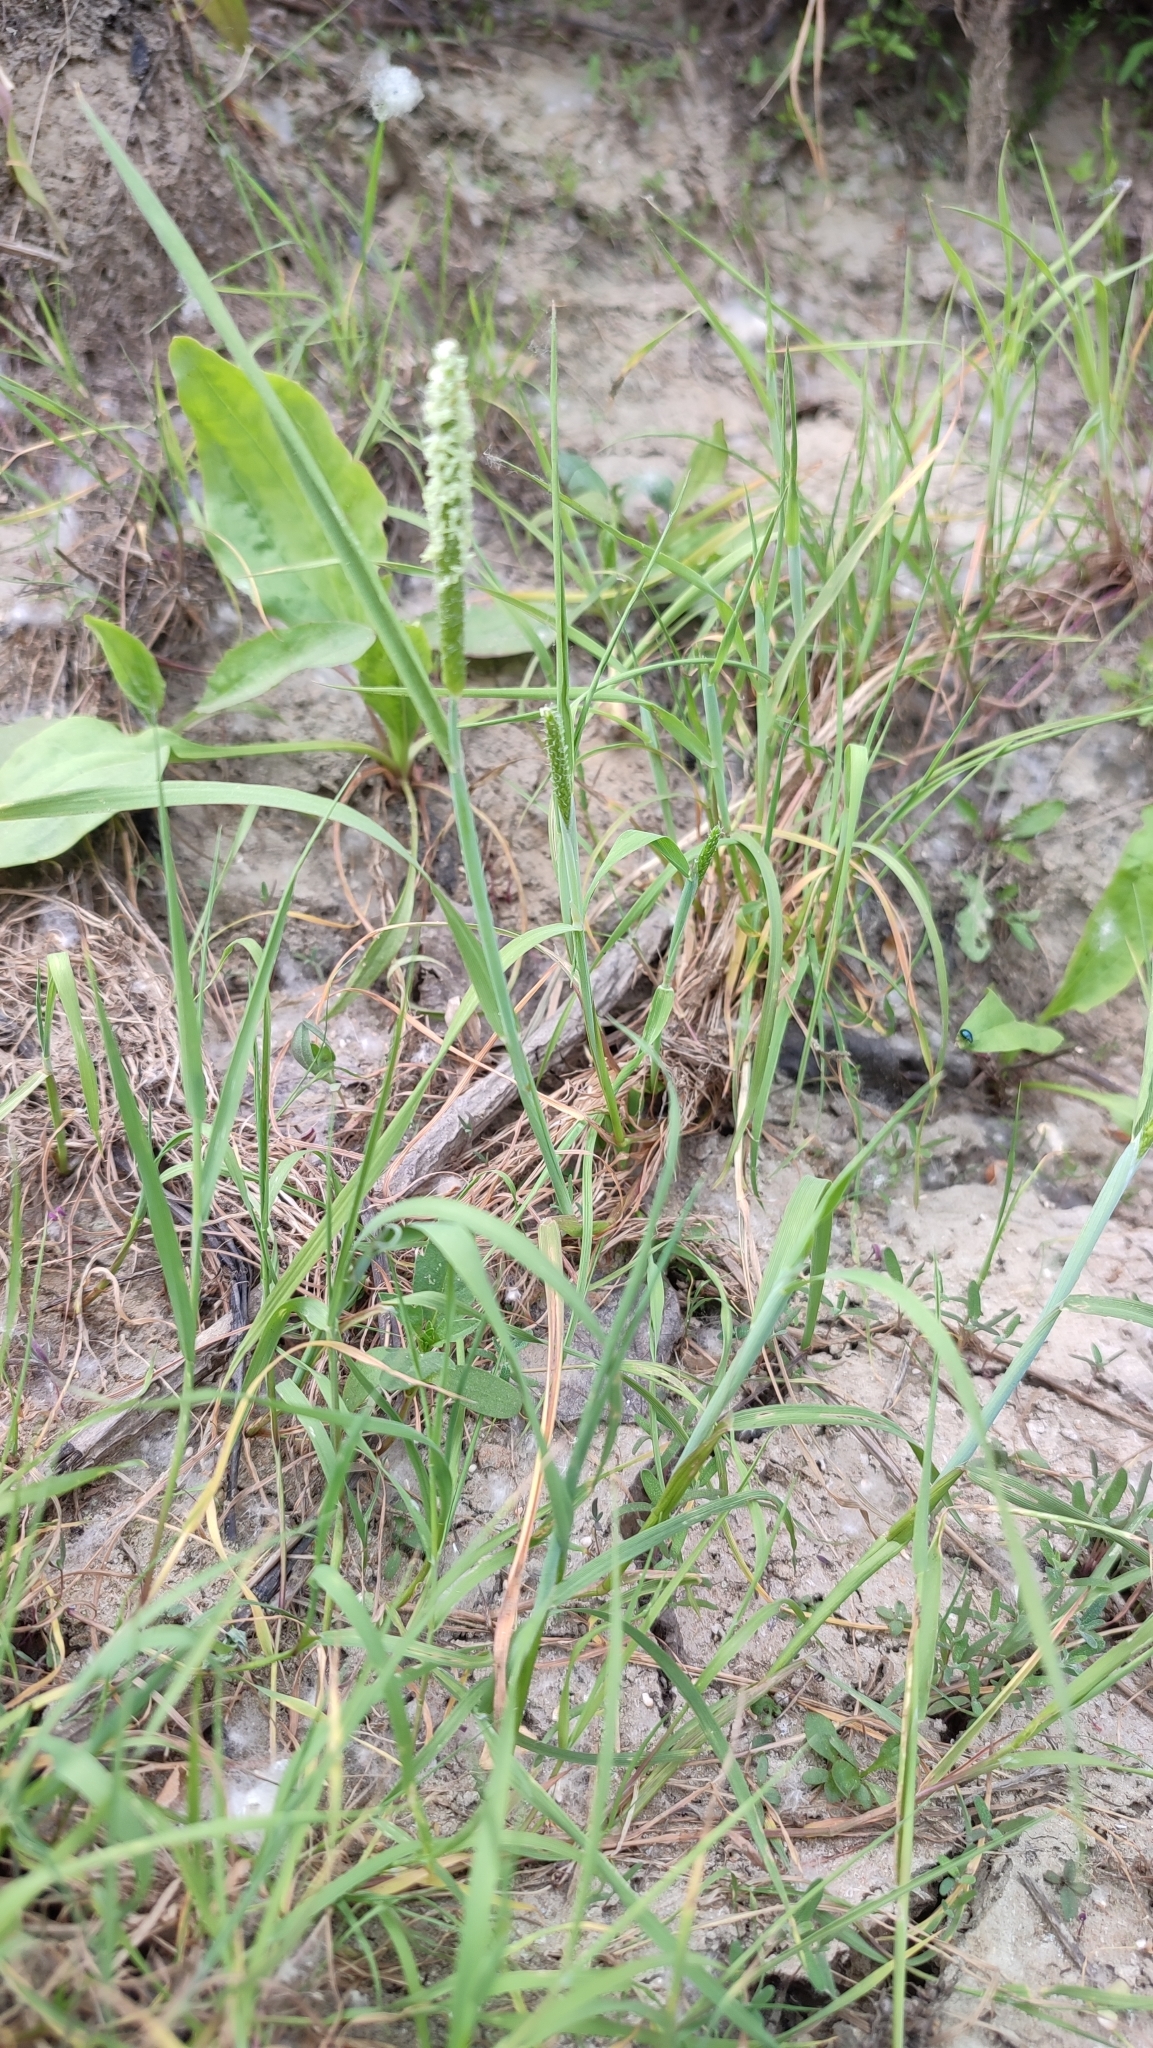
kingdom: Plantae
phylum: Tracheophyta
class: Liliopsida
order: Poales
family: Poaceae
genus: Alopecurus
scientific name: Alopecurus aequalis
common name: Orange foxtail
